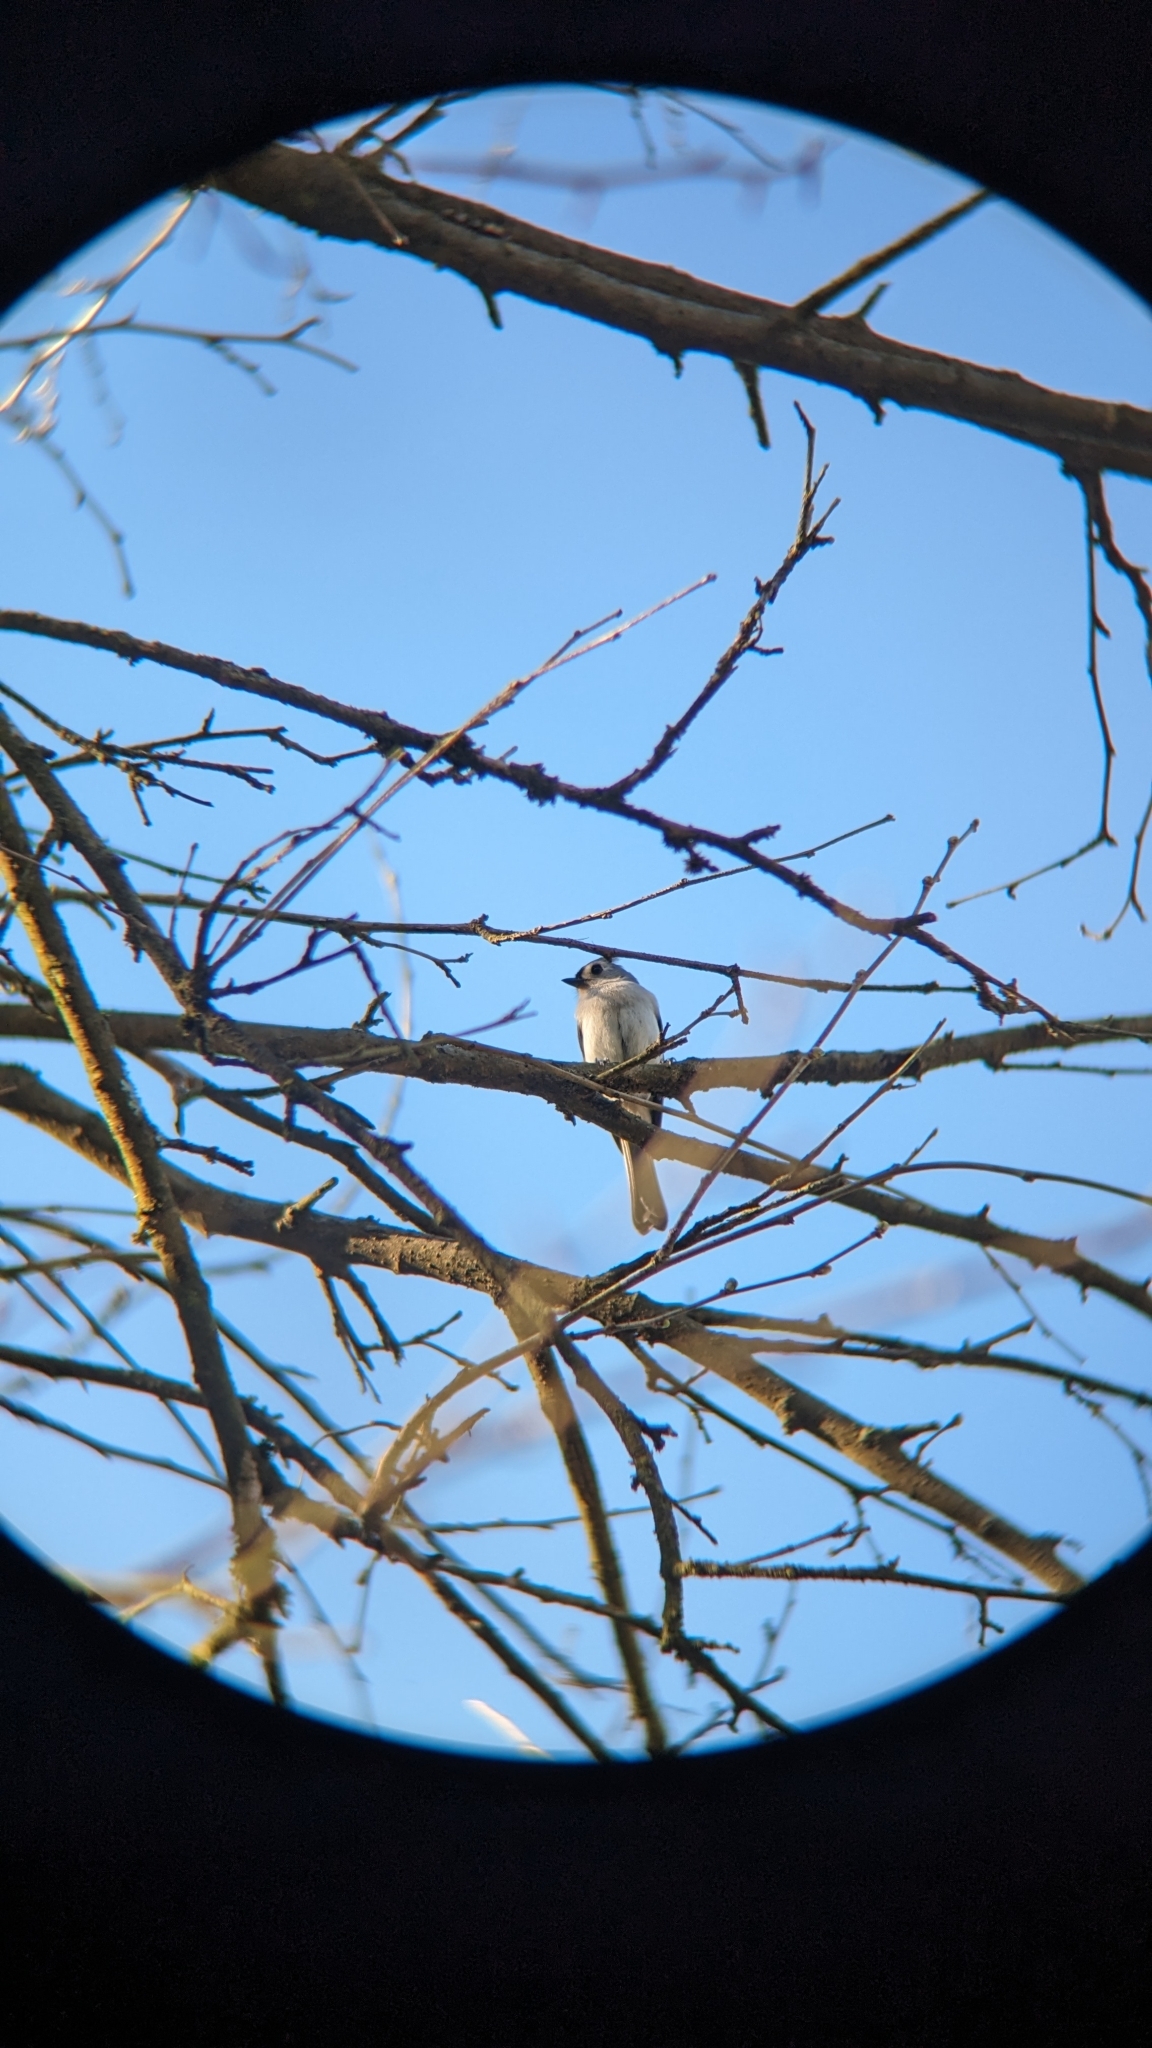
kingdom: Animalia
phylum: Chordata
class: Aves
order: Passeriformes
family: Paridae
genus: Baeolophus
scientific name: Baeolophus bicolor
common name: Tufted titmouse
